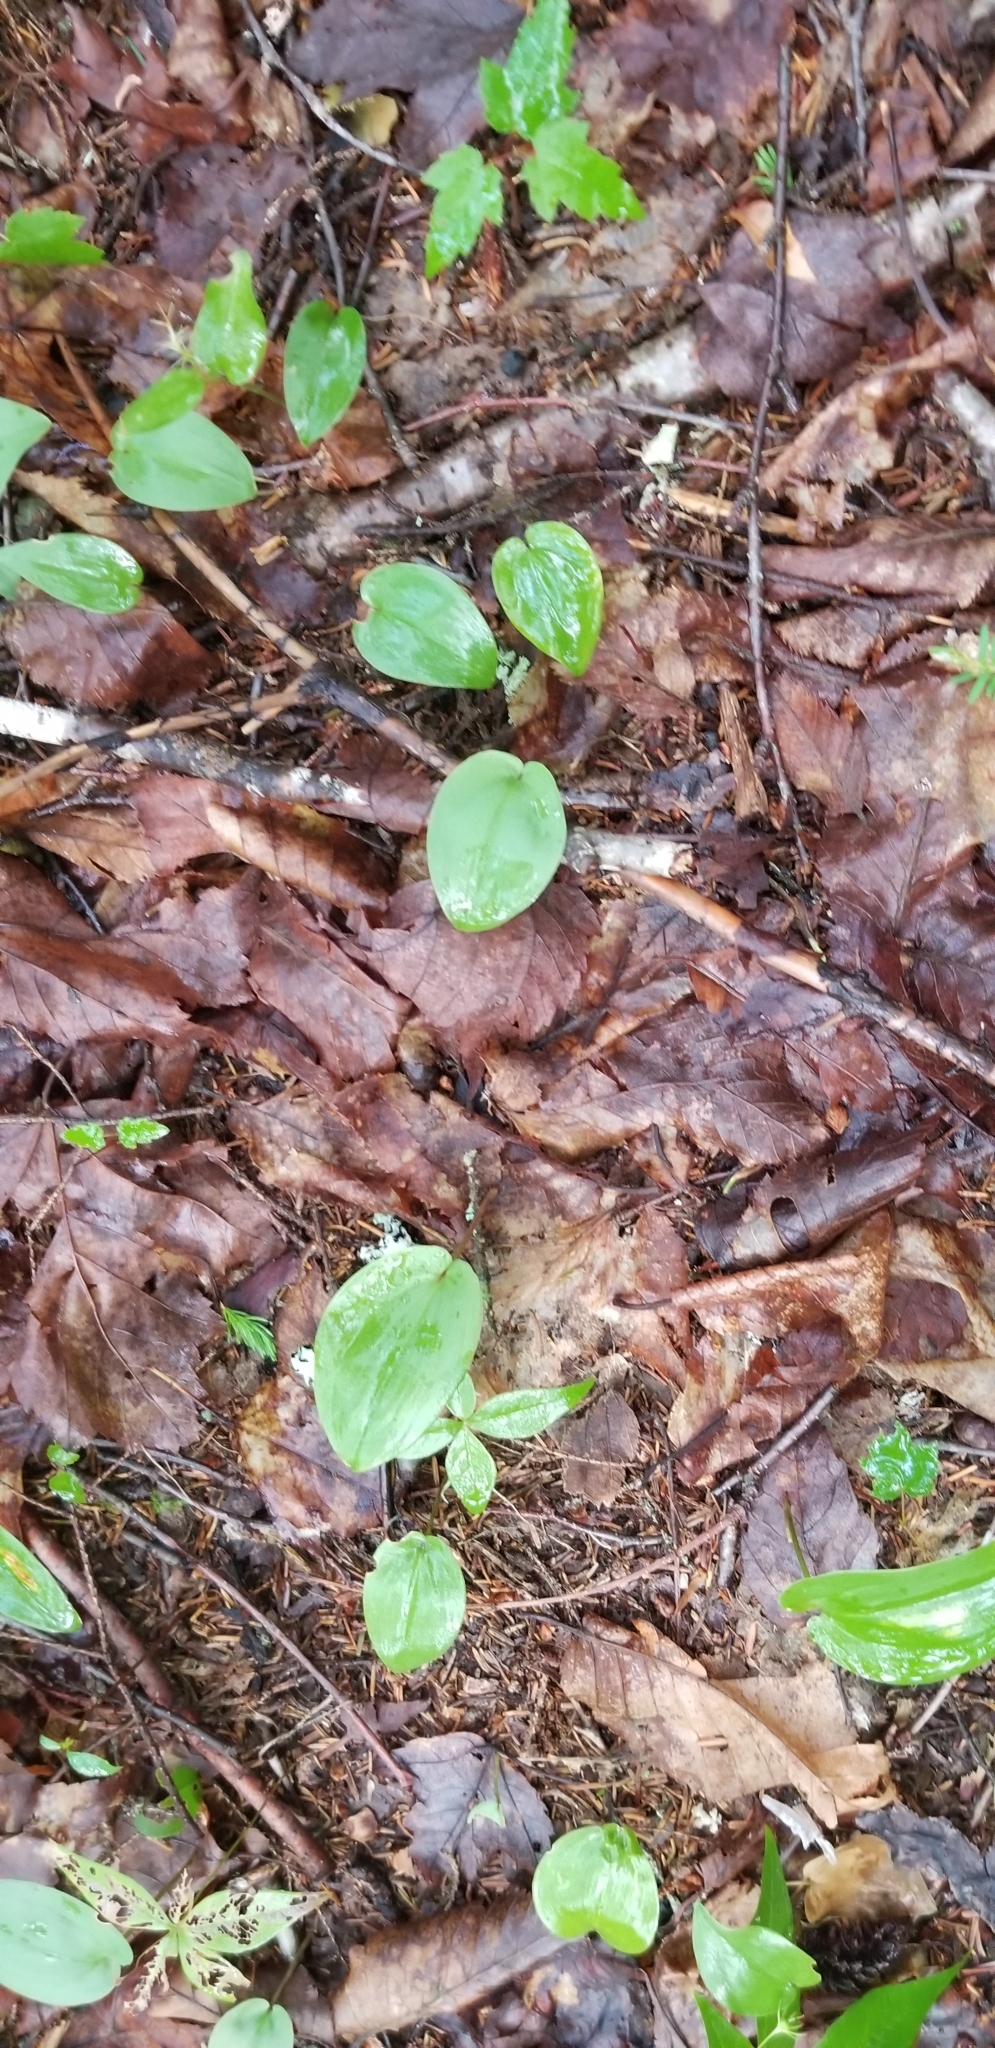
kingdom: Plantae
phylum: Tracheophyta
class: Liliopsida
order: Asparagales
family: Asparagaceae
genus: Maianthemum
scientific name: Maianthemum canadense
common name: False lily-of-the-valley
